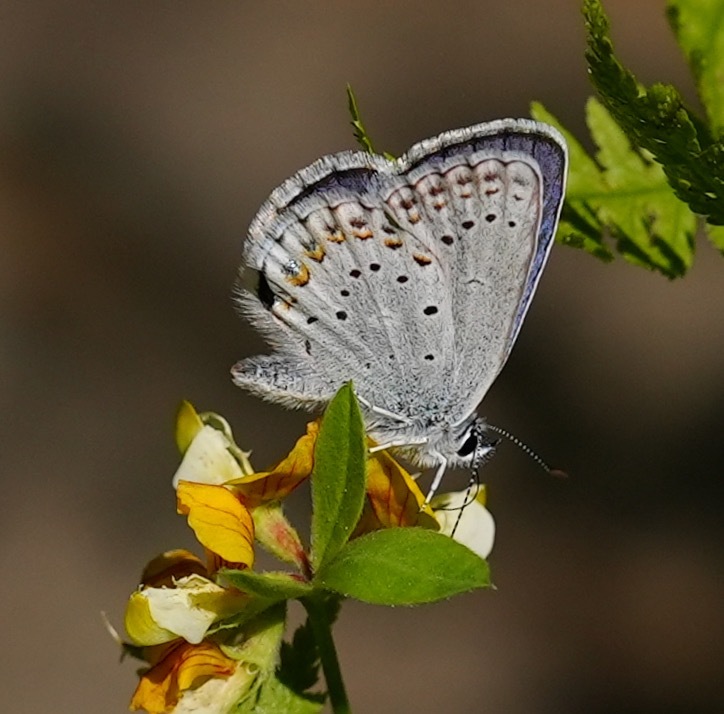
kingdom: Animalia
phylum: Arthropoda
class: Insecta
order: Lepidoptera
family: Lycaenidae
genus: Lycaeides
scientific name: Lycaeides anna
